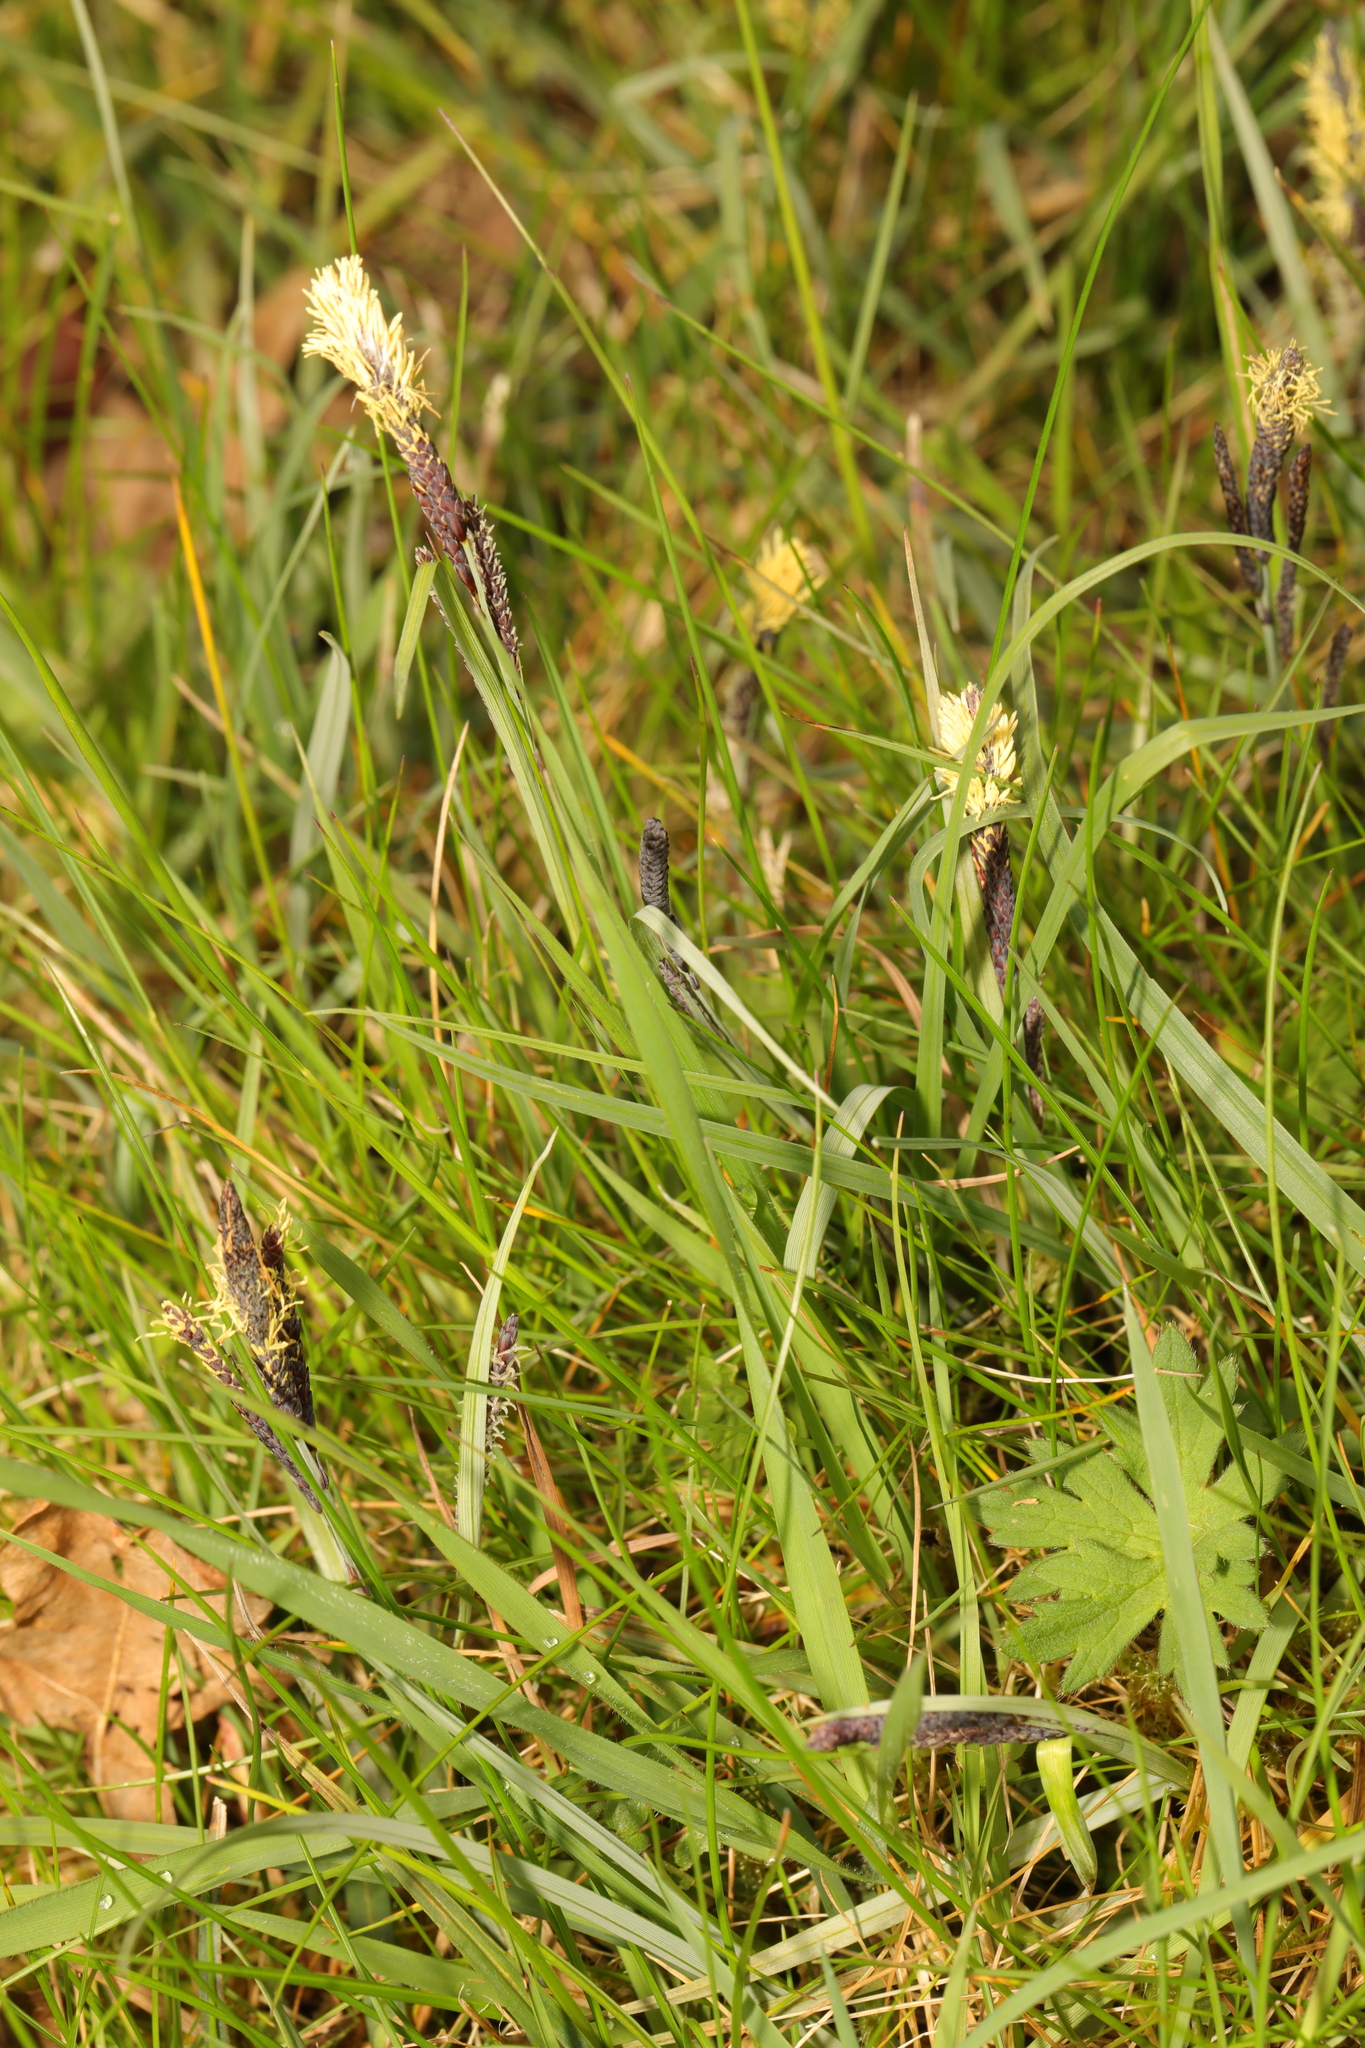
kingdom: Plantae
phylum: Tracheophyta
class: Liliopsida
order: Poales
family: Cyperaceae
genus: Carex
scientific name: Carex flacca
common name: Glaucous sedge
